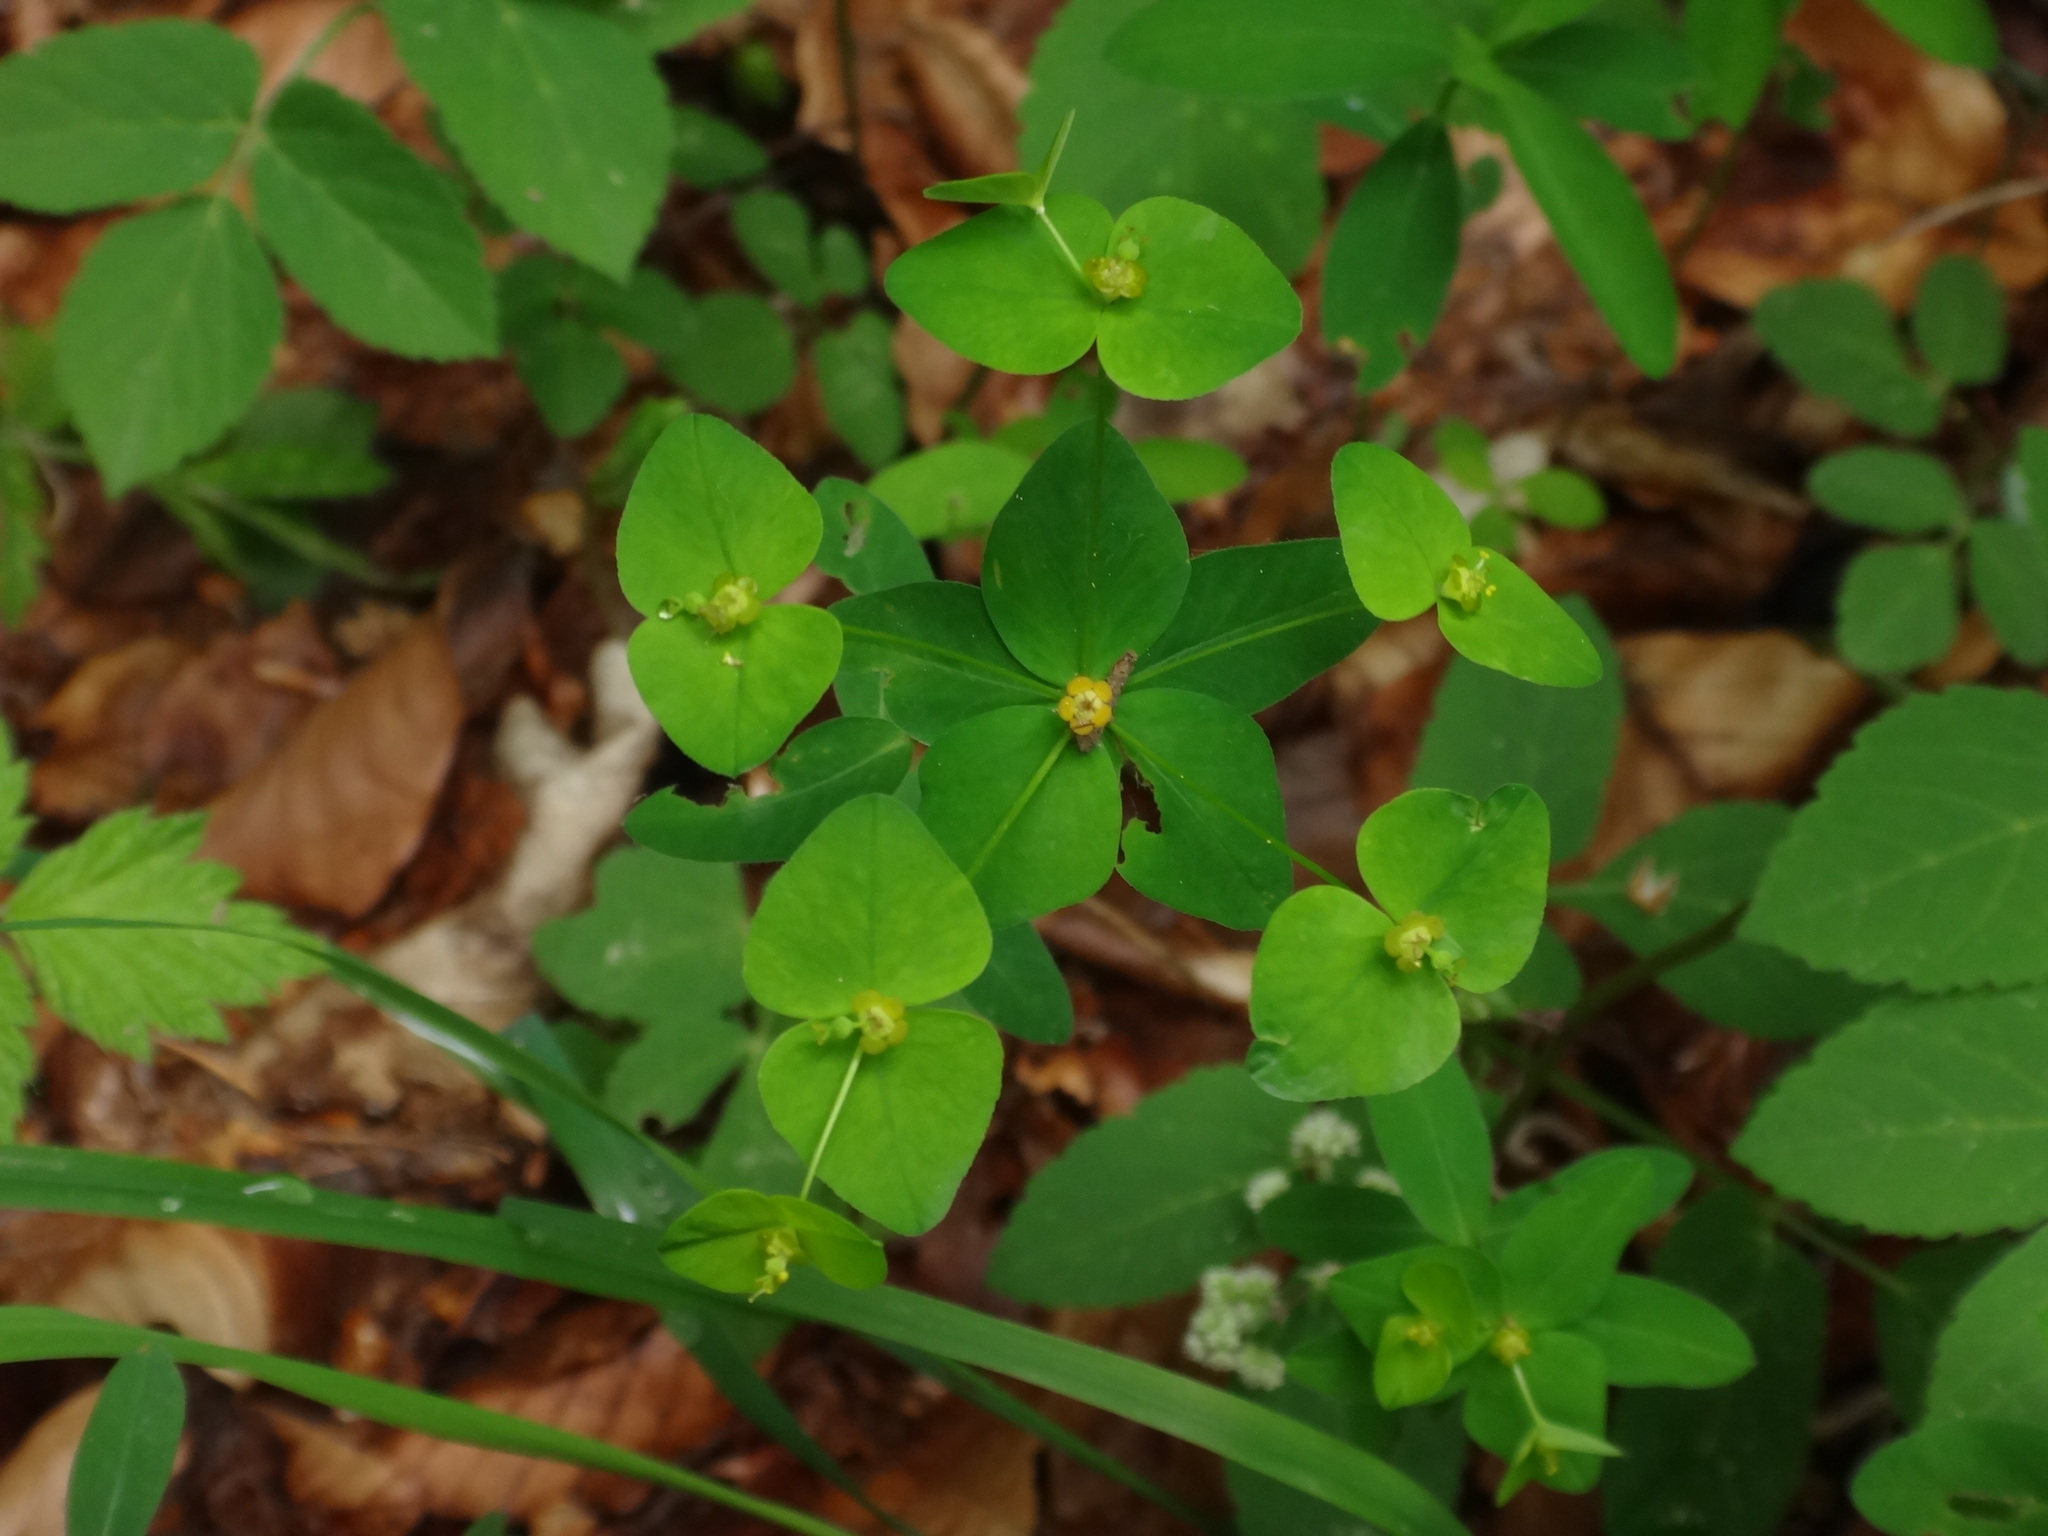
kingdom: Plantae
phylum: Tracheophyta
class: Magnoliopsida
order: Malpighiales
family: Euphorbiaceae
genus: Euphorbia
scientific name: Euphorbia dulcis
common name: Sweet spurge
